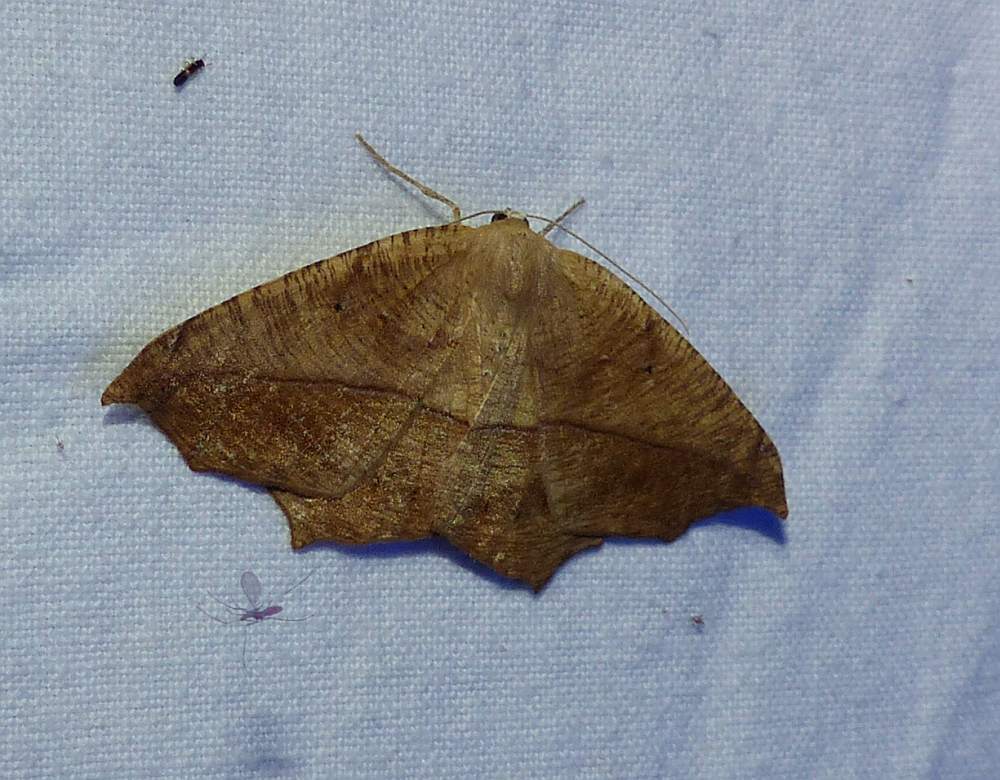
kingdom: Animalia
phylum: Arthropoda
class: Insecta
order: Lepidoptera
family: Geometridae
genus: Prochoerodes
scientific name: Prochoerodes lineola
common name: Large maple spanworm
